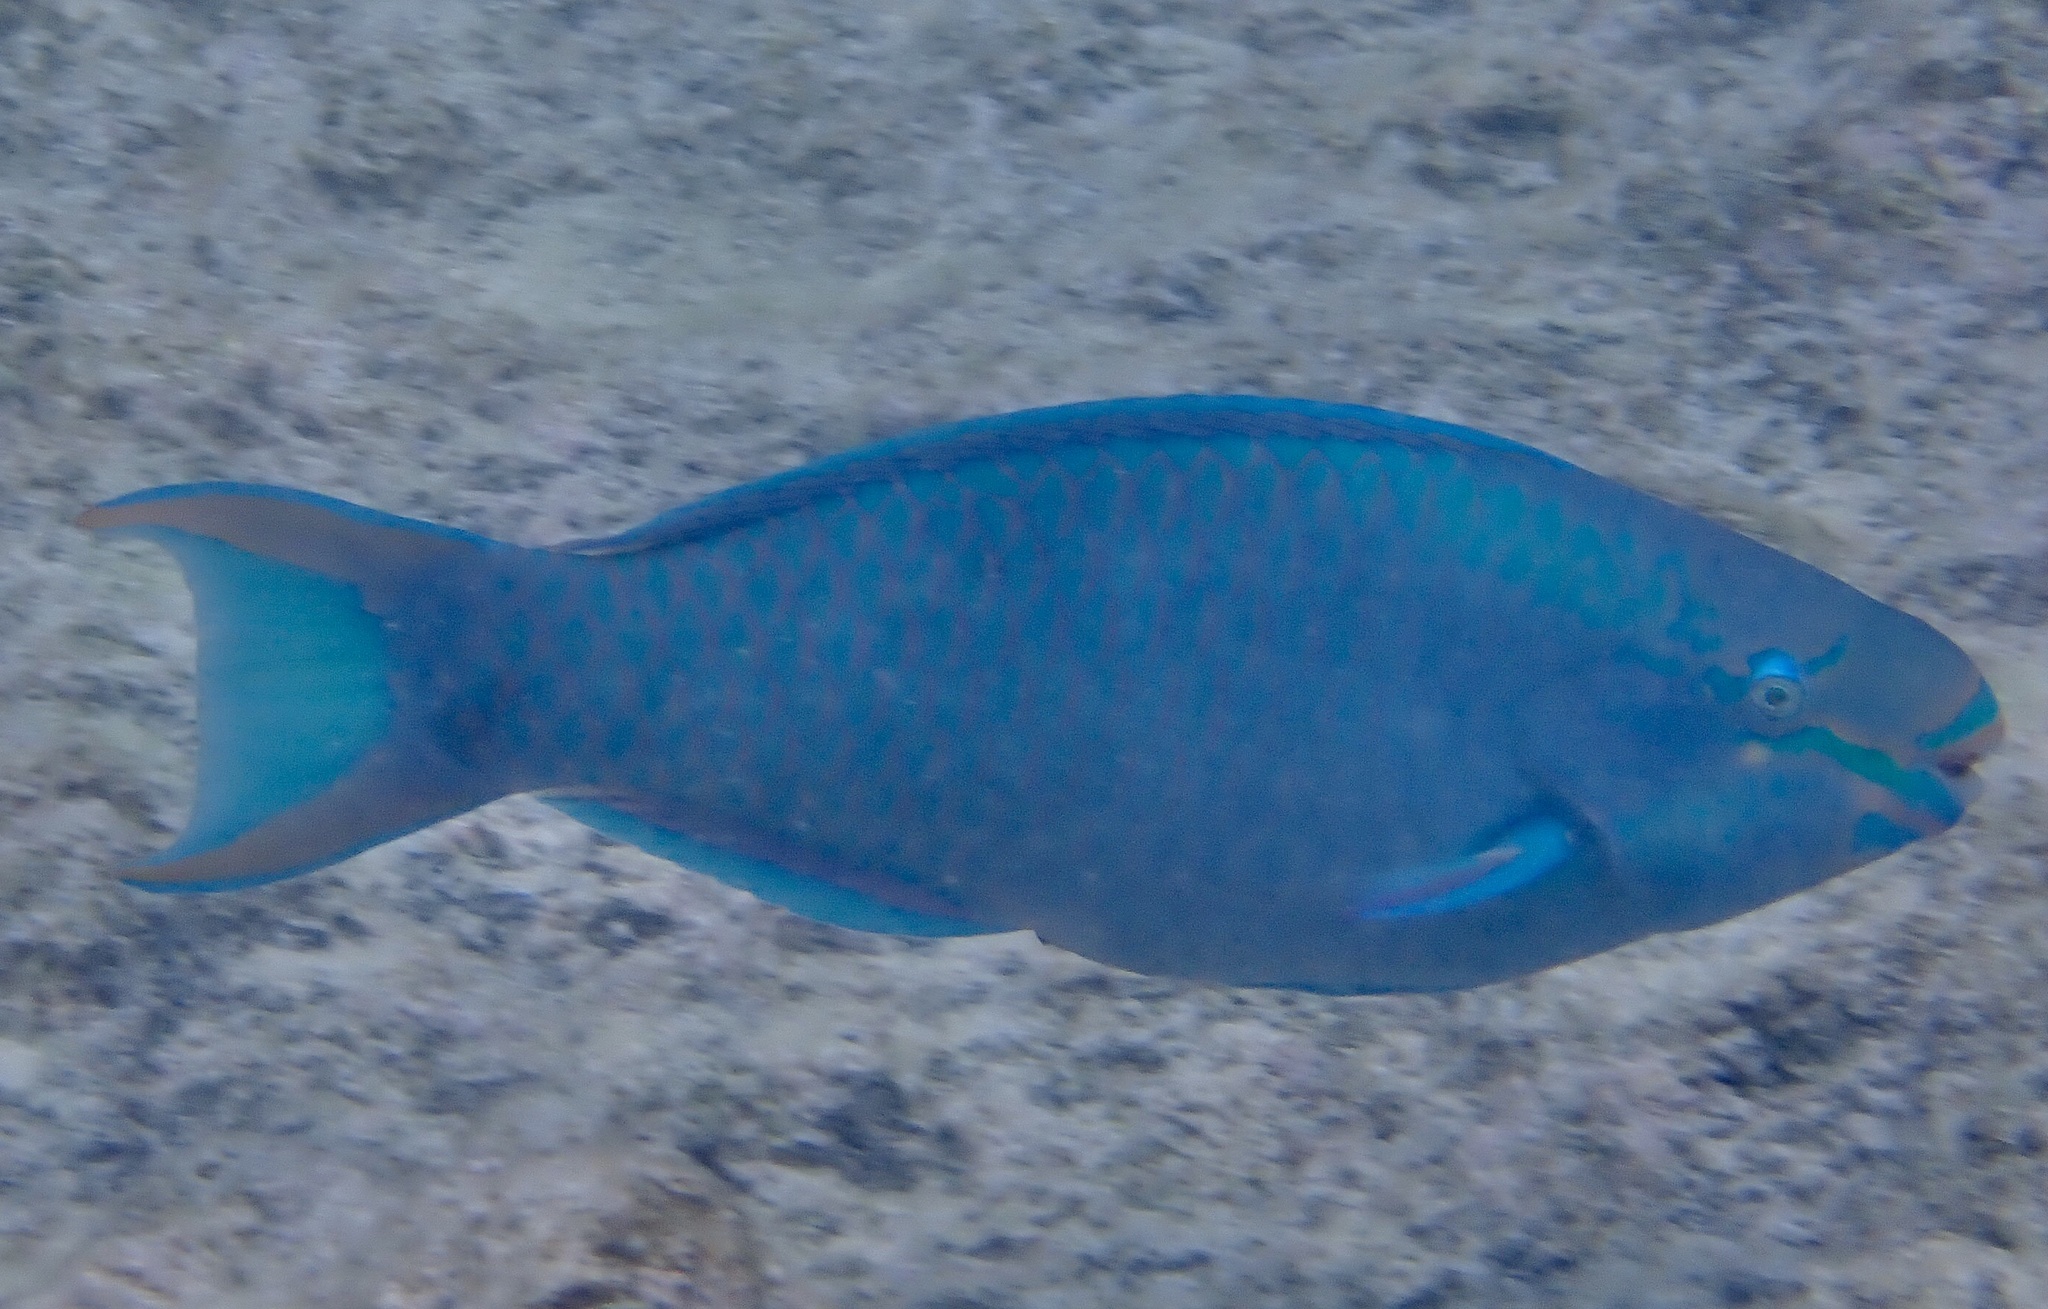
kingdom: Animalia
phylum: Chordata
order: Perciformes
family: Scaridae
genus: Scarus
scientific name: Scarus vetula
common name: Queen parrotfish
